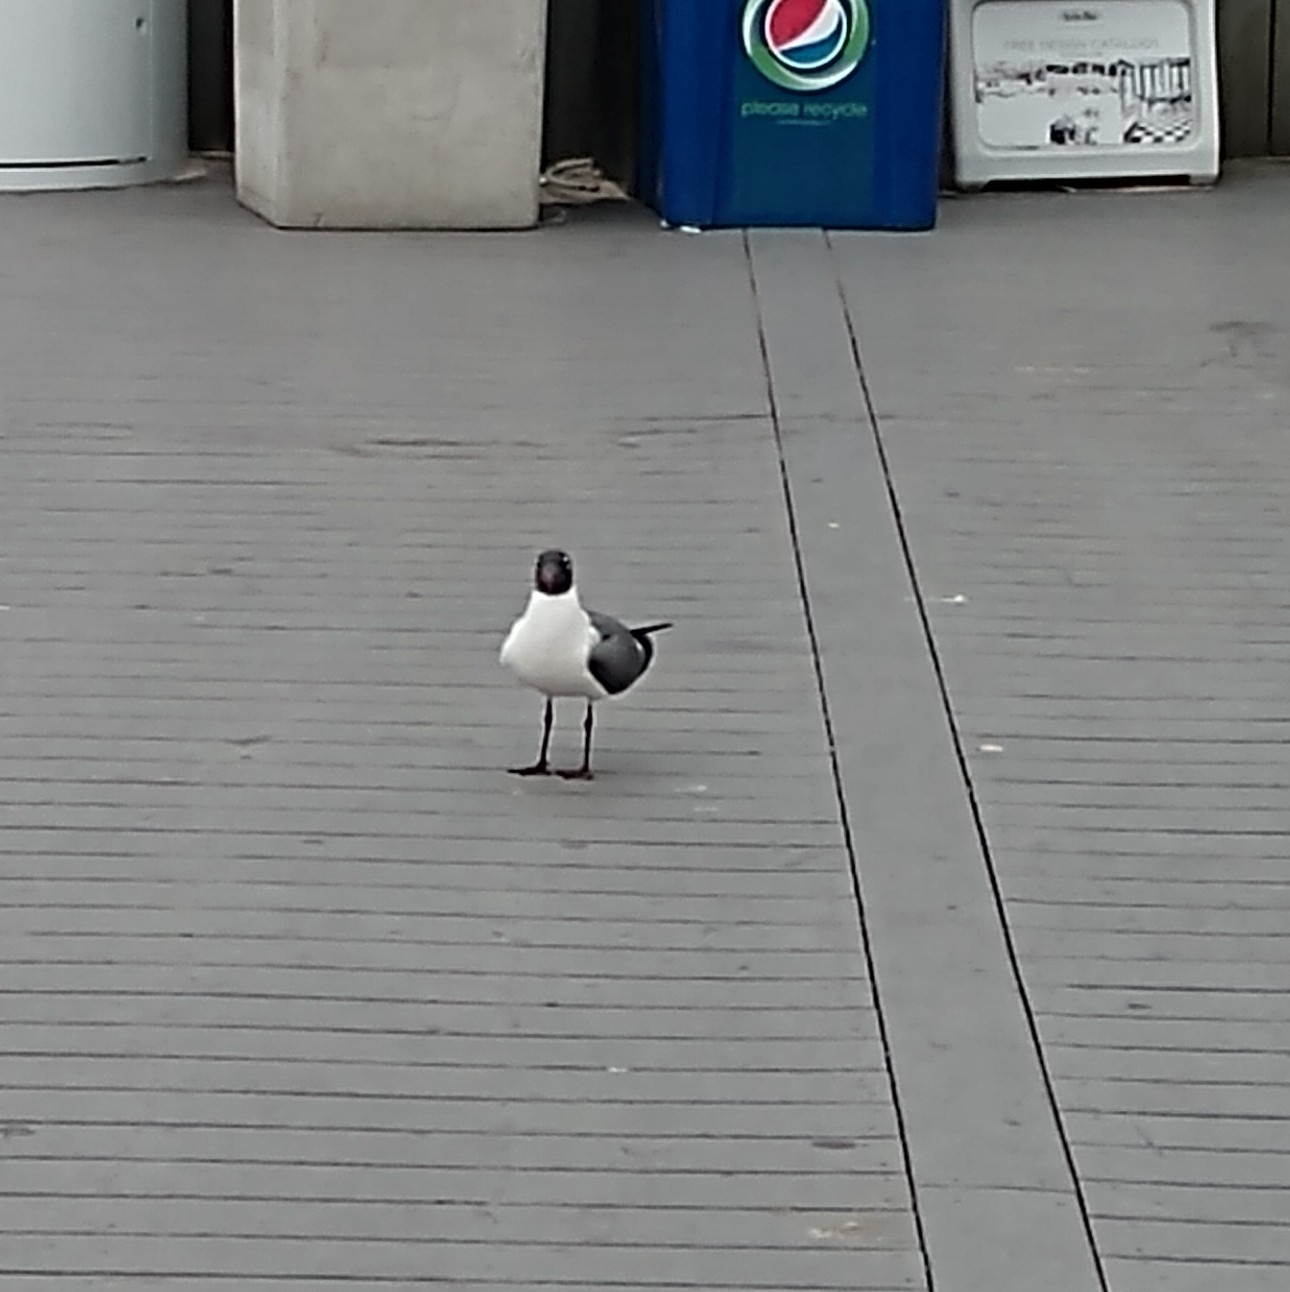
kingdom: Animalia
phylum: Chordata
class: Aves
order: Charadriiformes
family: Laridae
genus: Leucophaeus
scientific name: Leucophaeus atricilla
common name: Laughing gull
